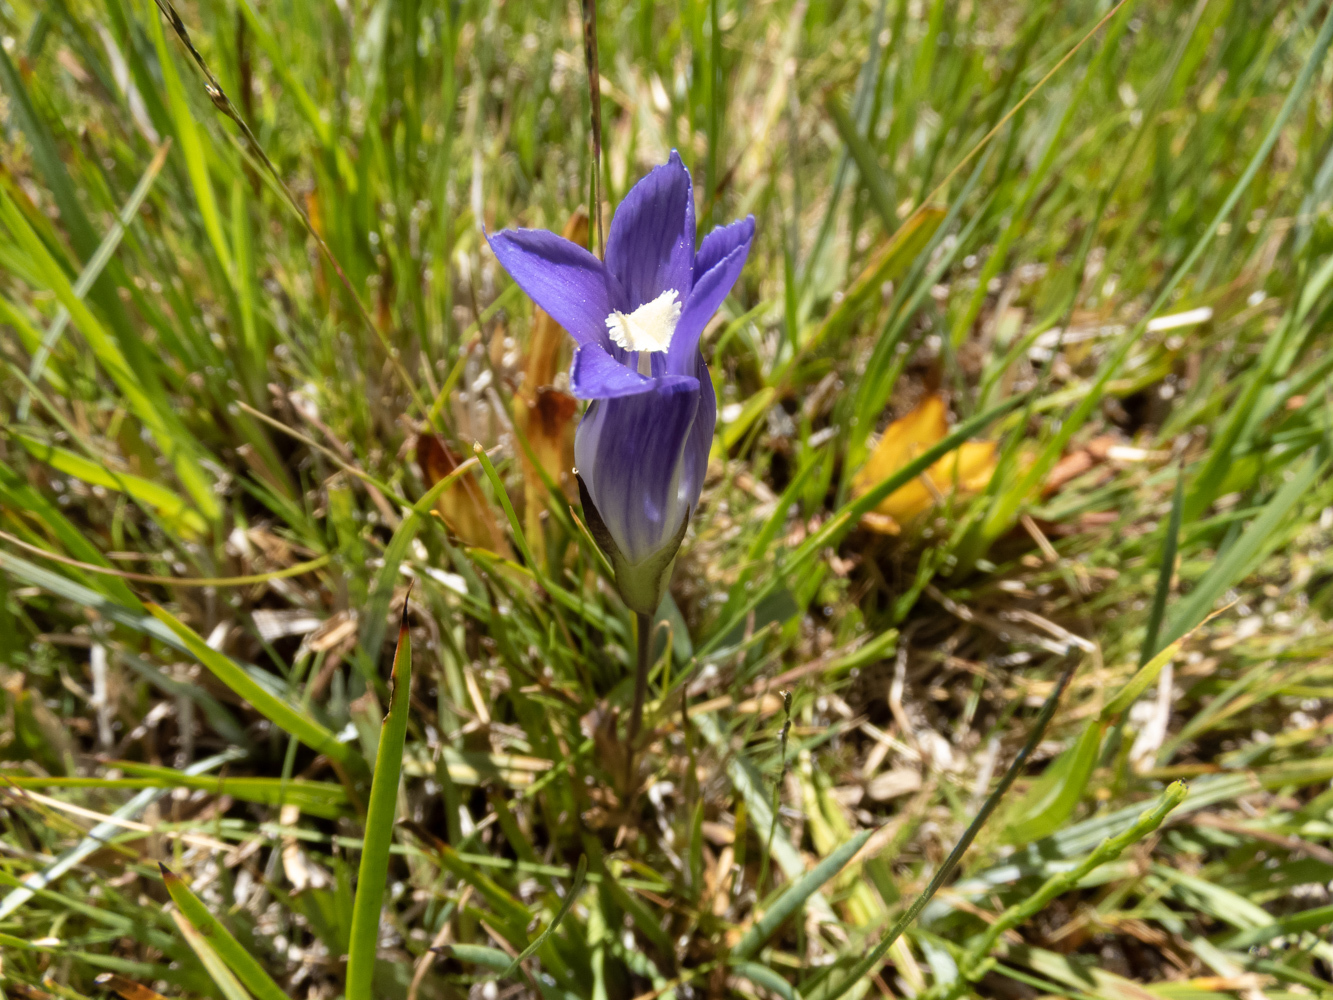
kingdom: Plantae
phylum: Tracheophyta
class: Magnoliopsida
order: Gentianales
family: Gentianaceae
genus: Gentianopsis
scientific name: Gentianopsis holopetala
